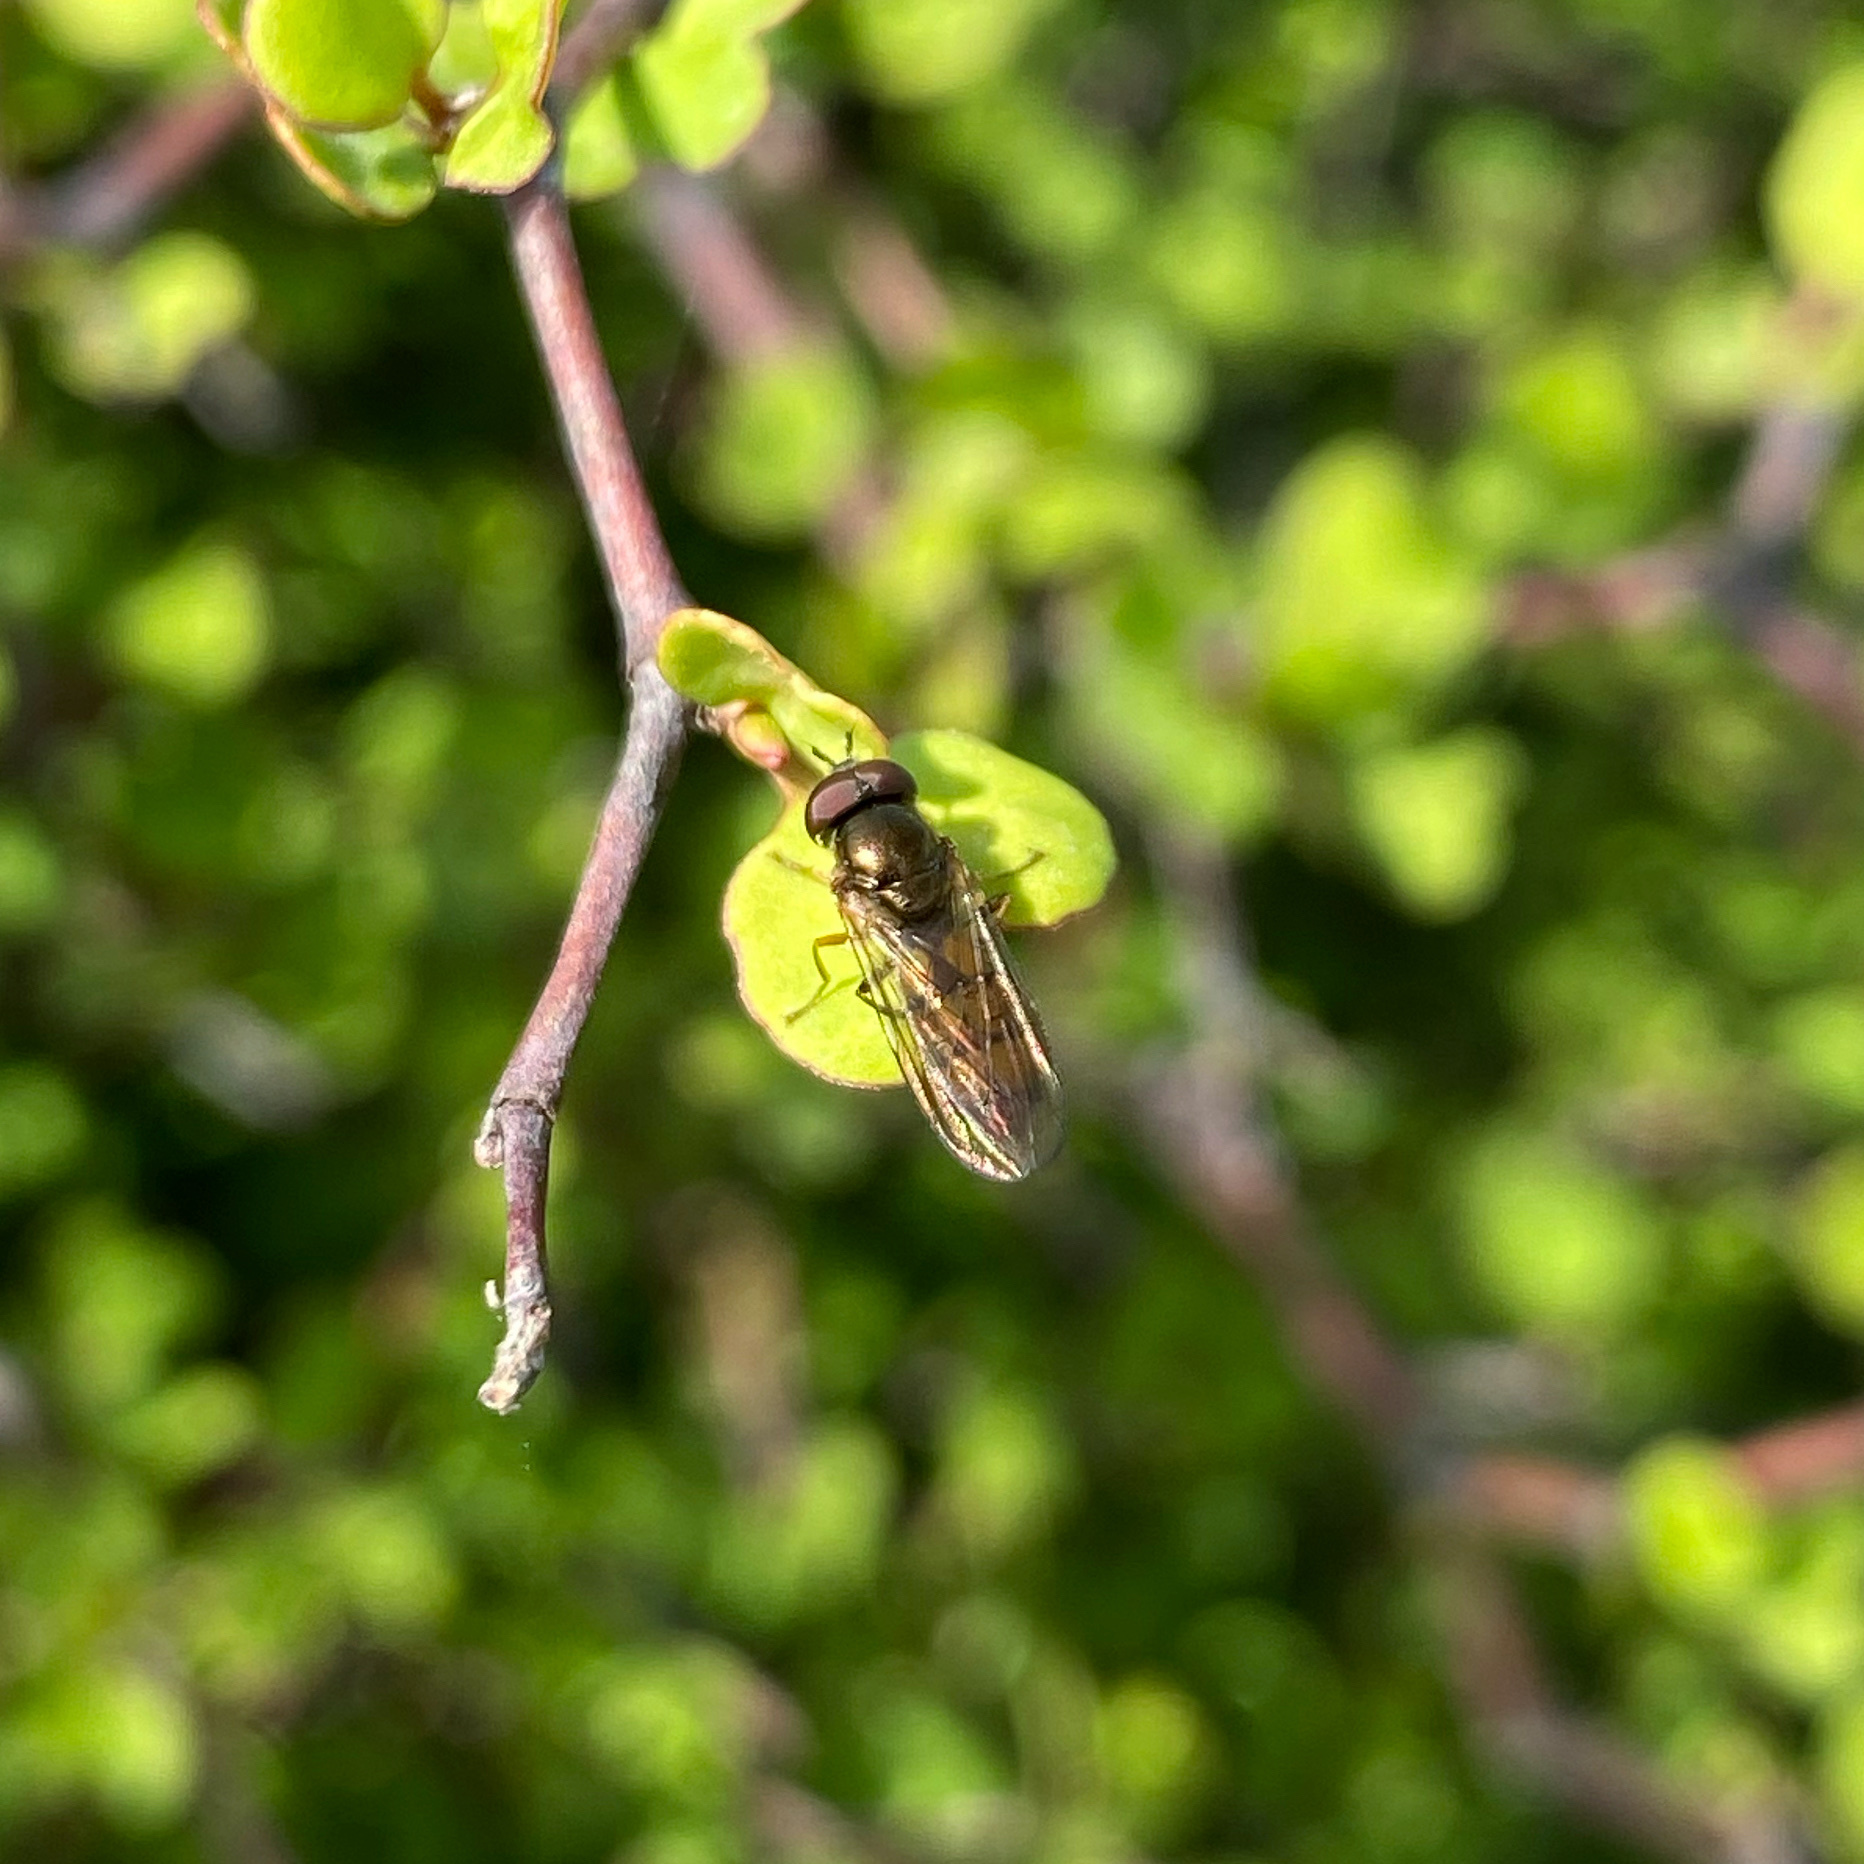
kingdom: Animalia
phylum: Arthropoda
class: Insecta
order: Diptera
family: Syrphidae
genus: Melanostoma
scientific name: Melanostoma fasciatum
